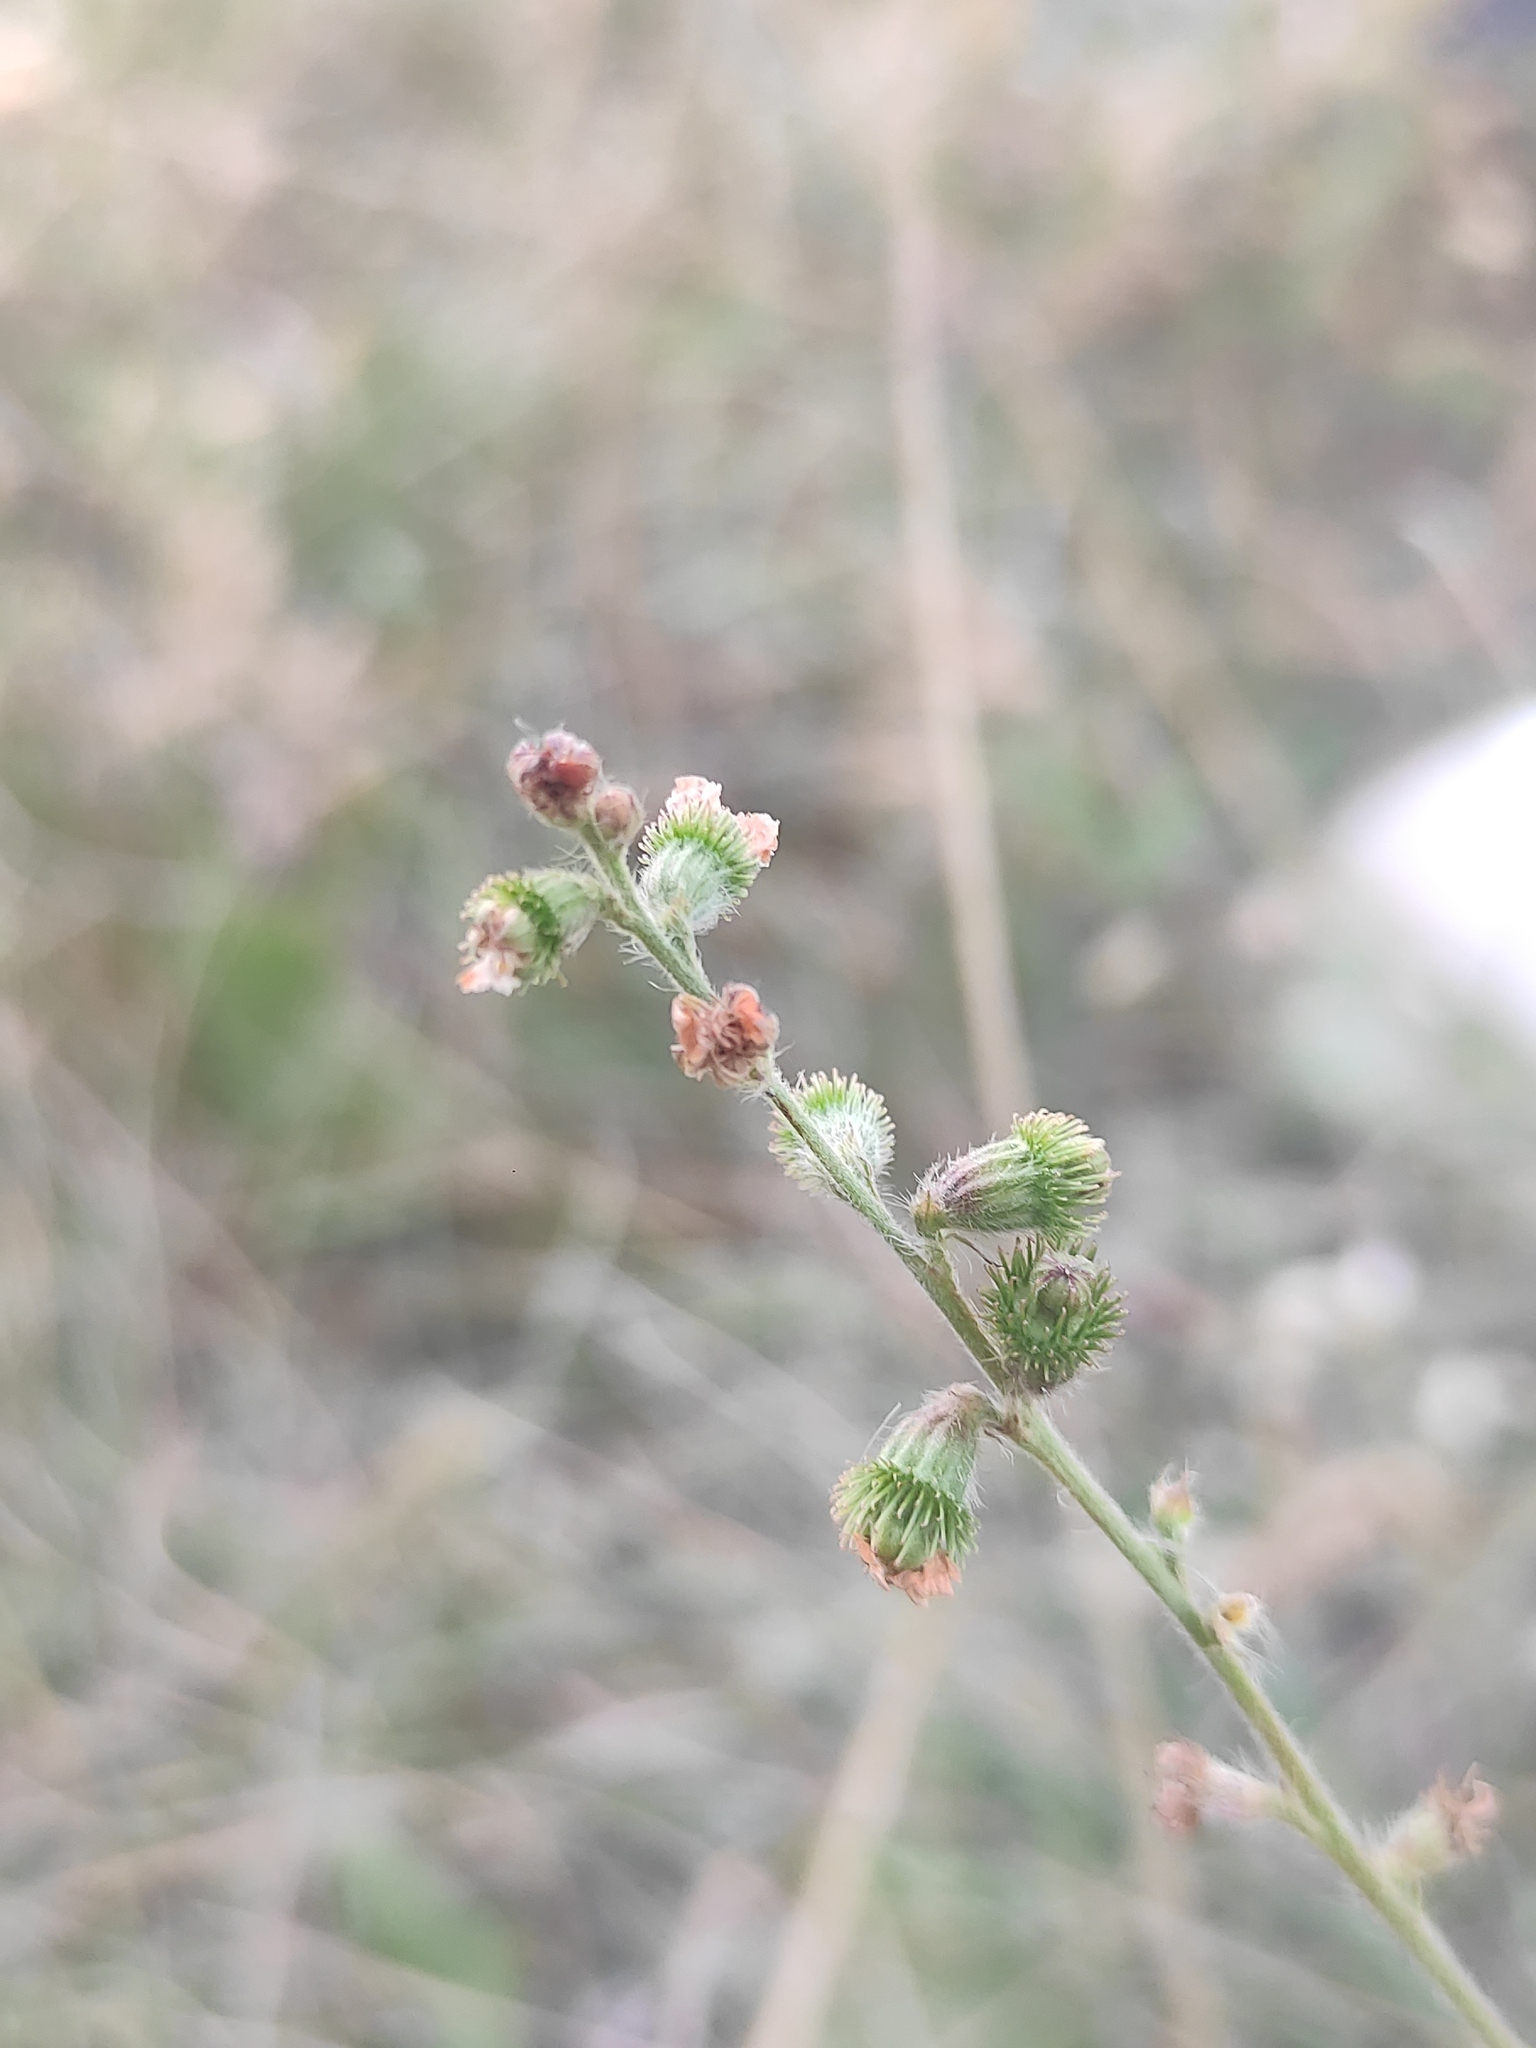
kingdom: Plantae
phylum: Tracheophyta
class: Magnoliopsida
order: Rosales
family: Rosaceae
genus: Agrimonia
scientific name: Agrimonia eupatoria
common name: Agrimony
